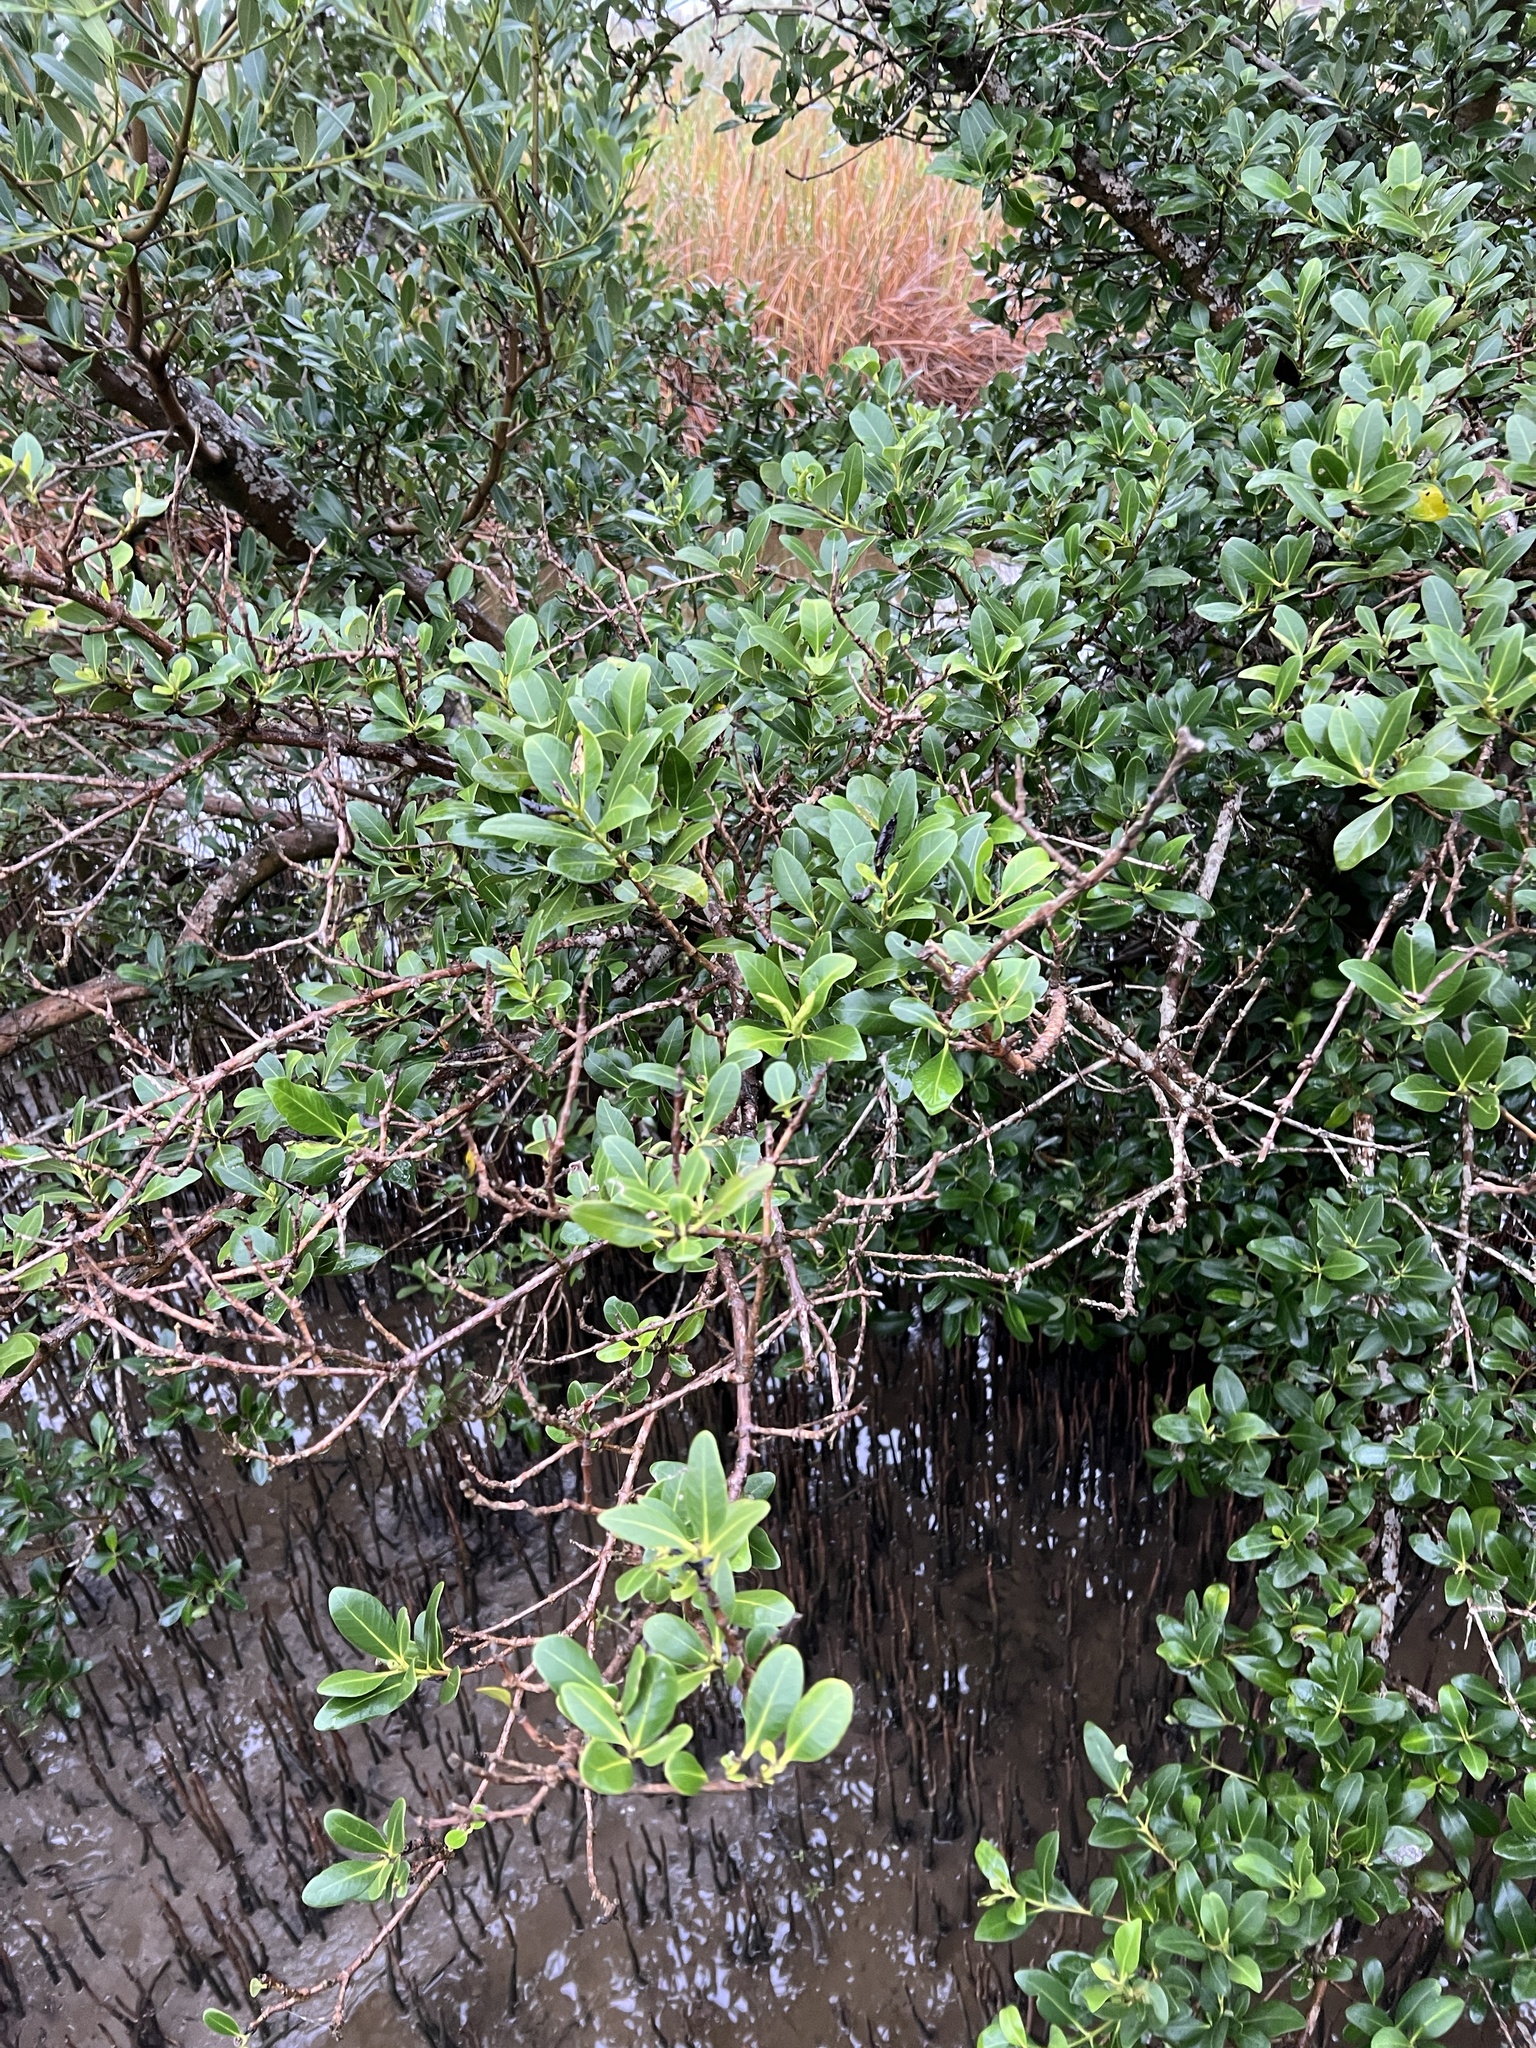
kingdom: Plantae
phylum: Tracheophyta
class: Magnoliopsida
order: Lamiales
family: Acanthaceae
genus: Avicennia
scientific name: Avicennia germinans
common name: Black mangrove
